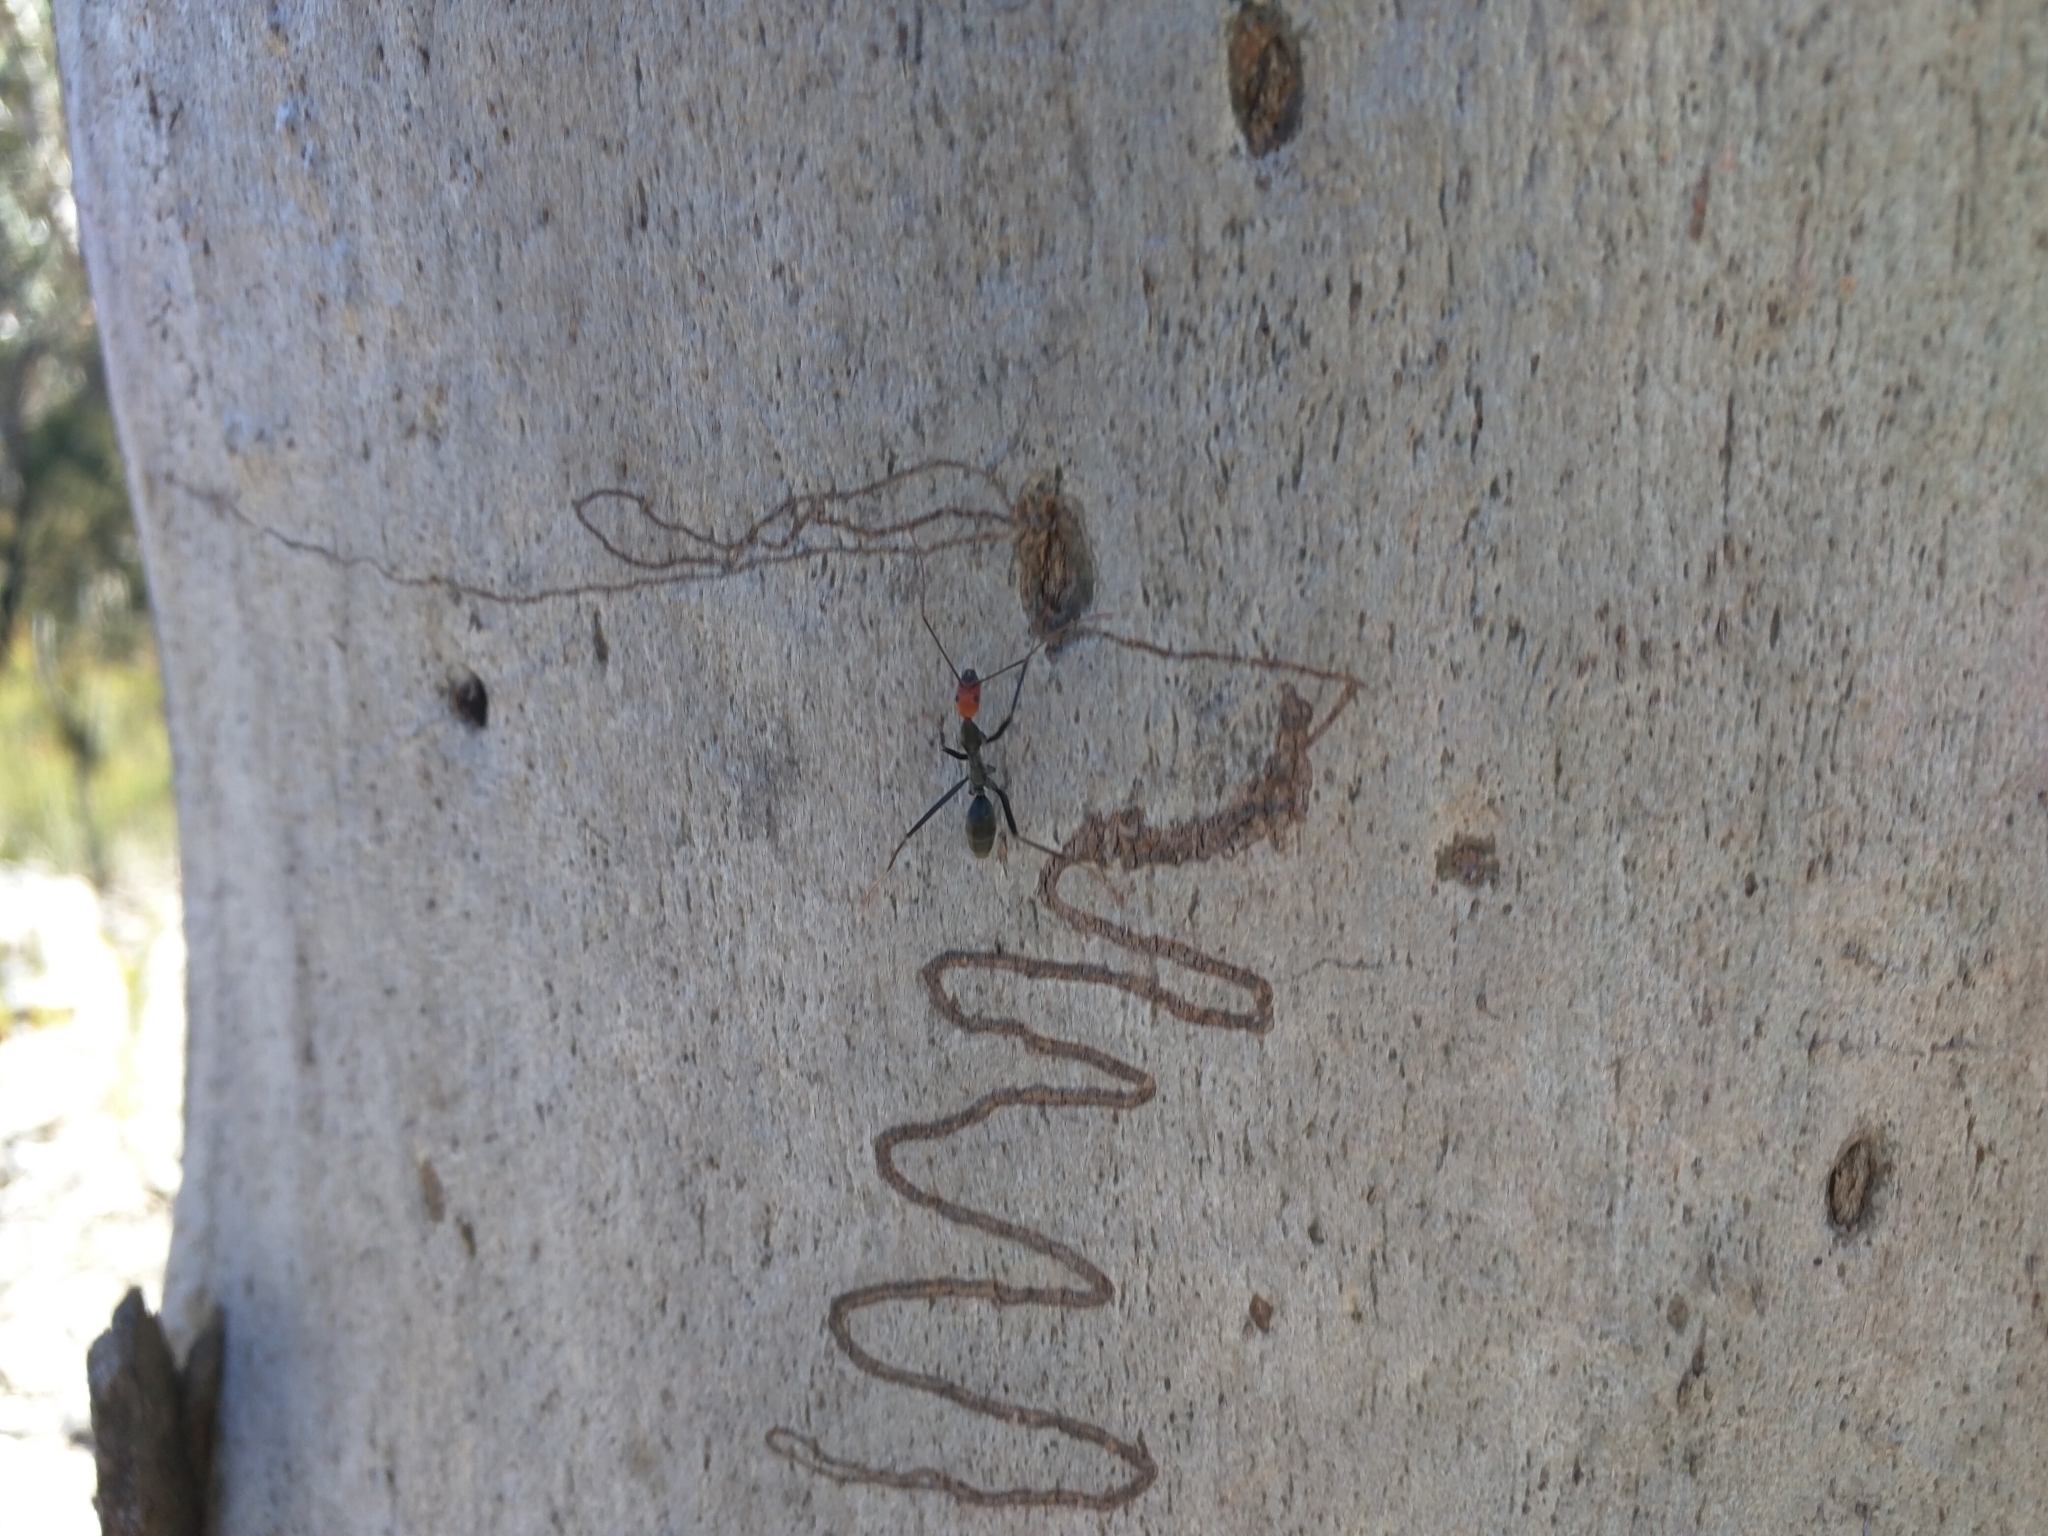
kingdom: Animalia
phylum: Arthropoda
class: Insecta
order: Hymenoptera
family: Formicidae
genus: Leptomyrmex
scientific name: Leptomyrmex erythrocephalus
